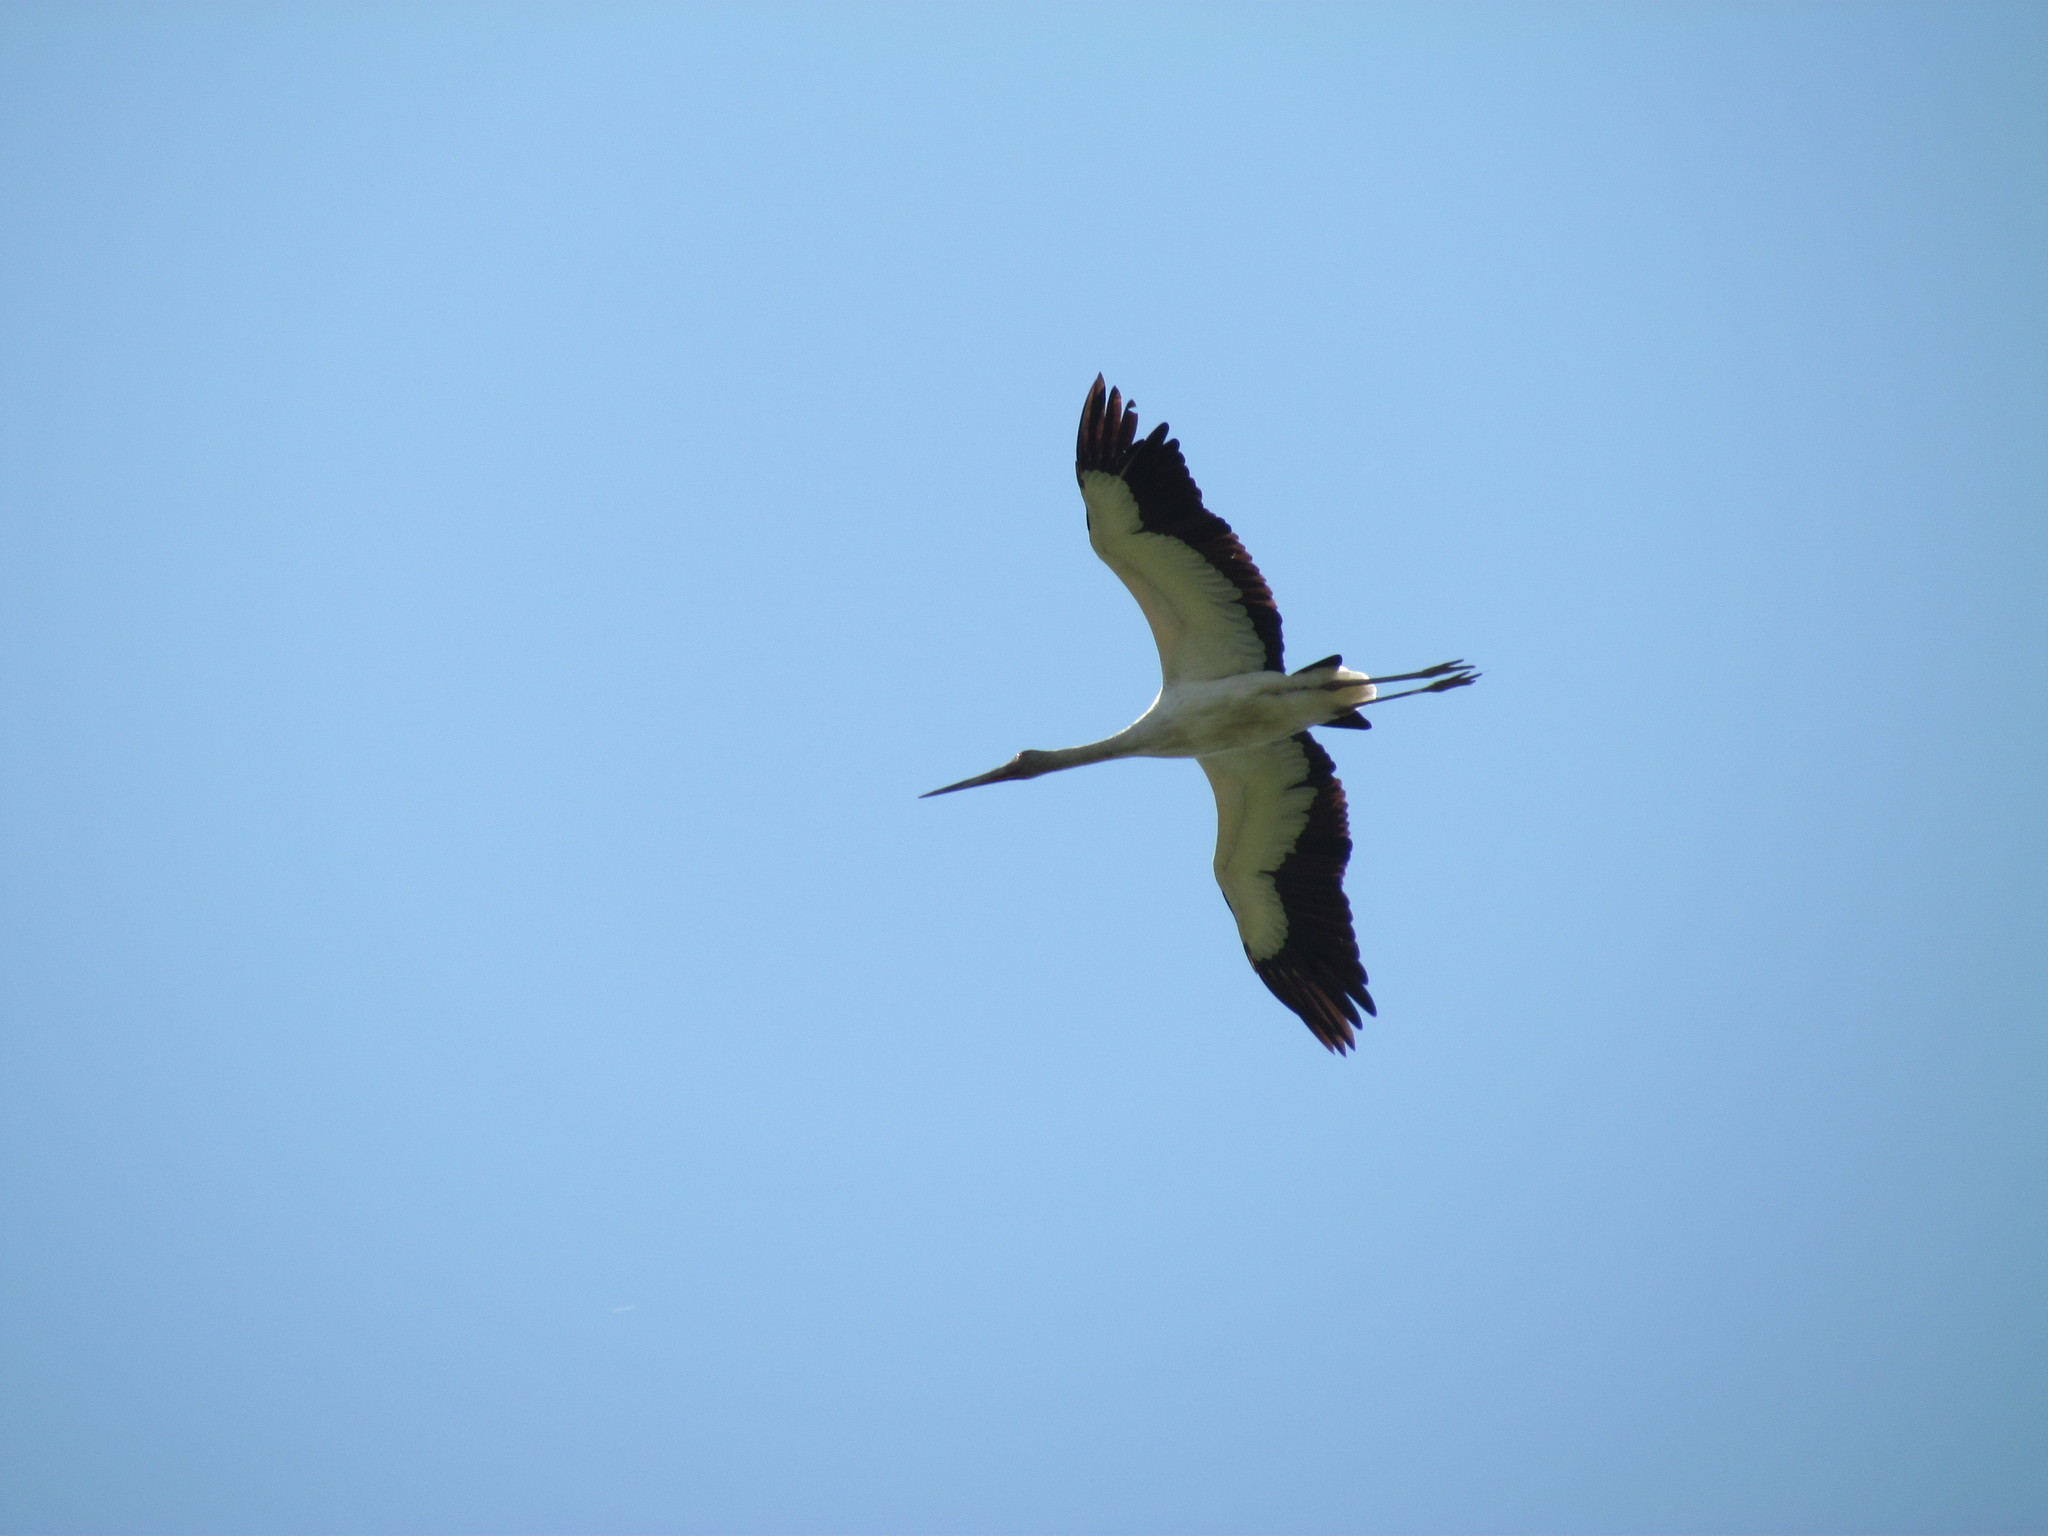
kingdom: Animalia
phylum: Chordata
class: Aves
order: Ciconiiformes
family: Ciconiidae
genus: Ciconia
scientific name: Ciconia maguari
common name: Maguari stork
